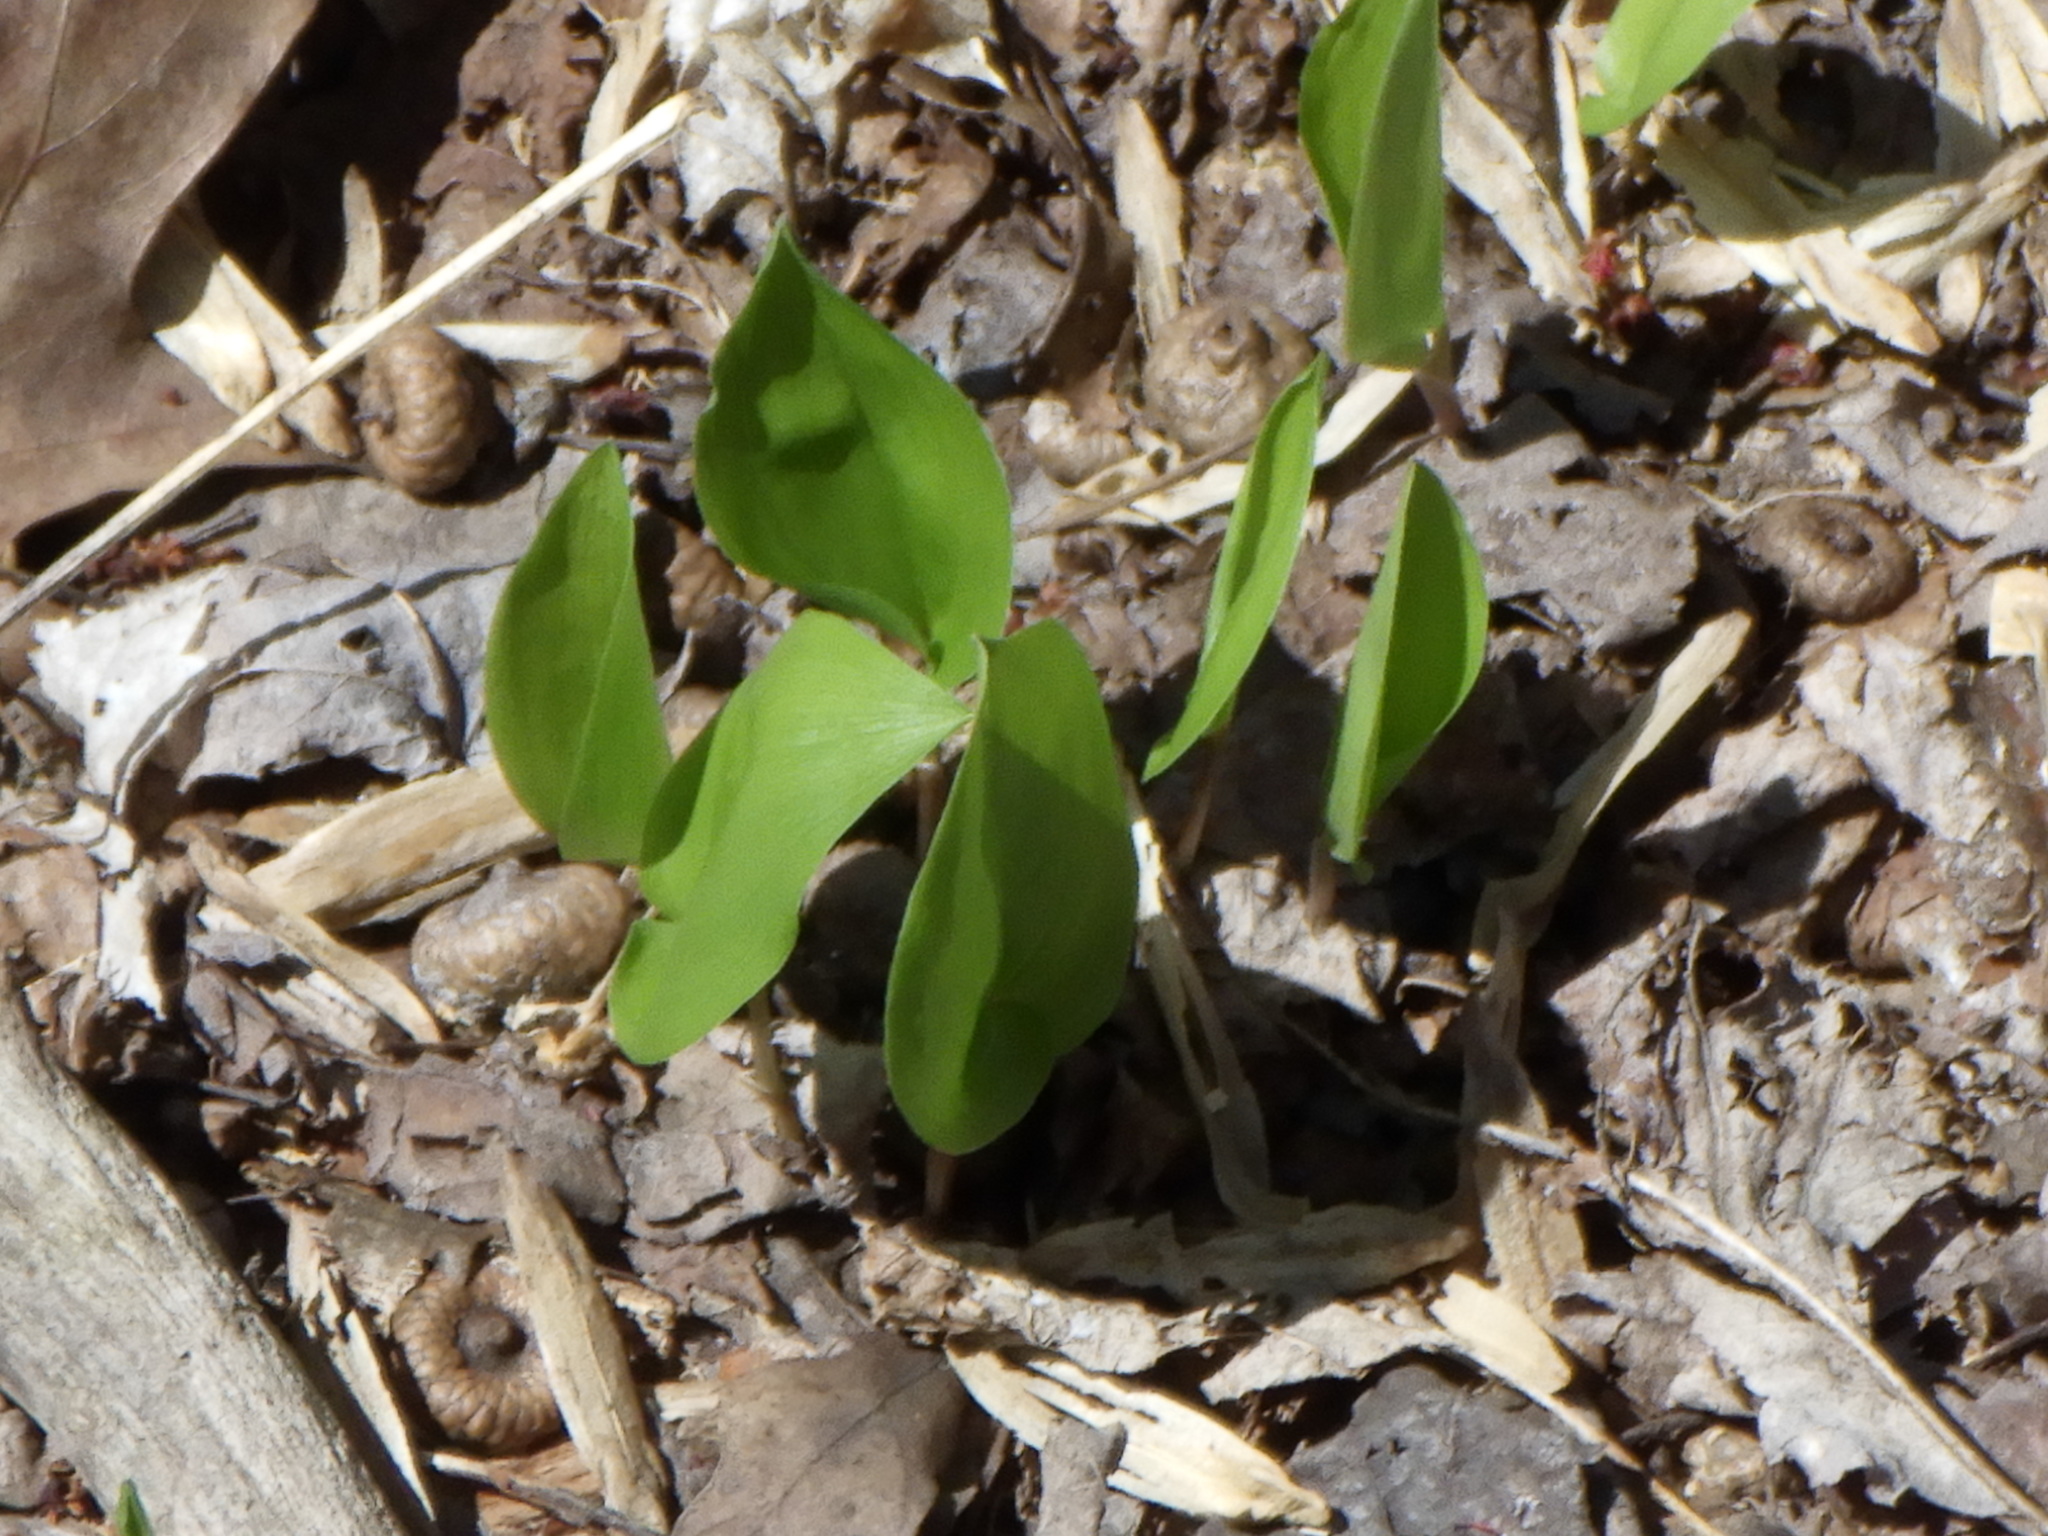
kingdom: Plantae
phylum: Tracheophyta
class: Liliopsida
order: Asparagales
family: Asparagaceae
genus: Maianthemum
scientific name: Maianthemum canadense
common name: False lily-of-the-valley
